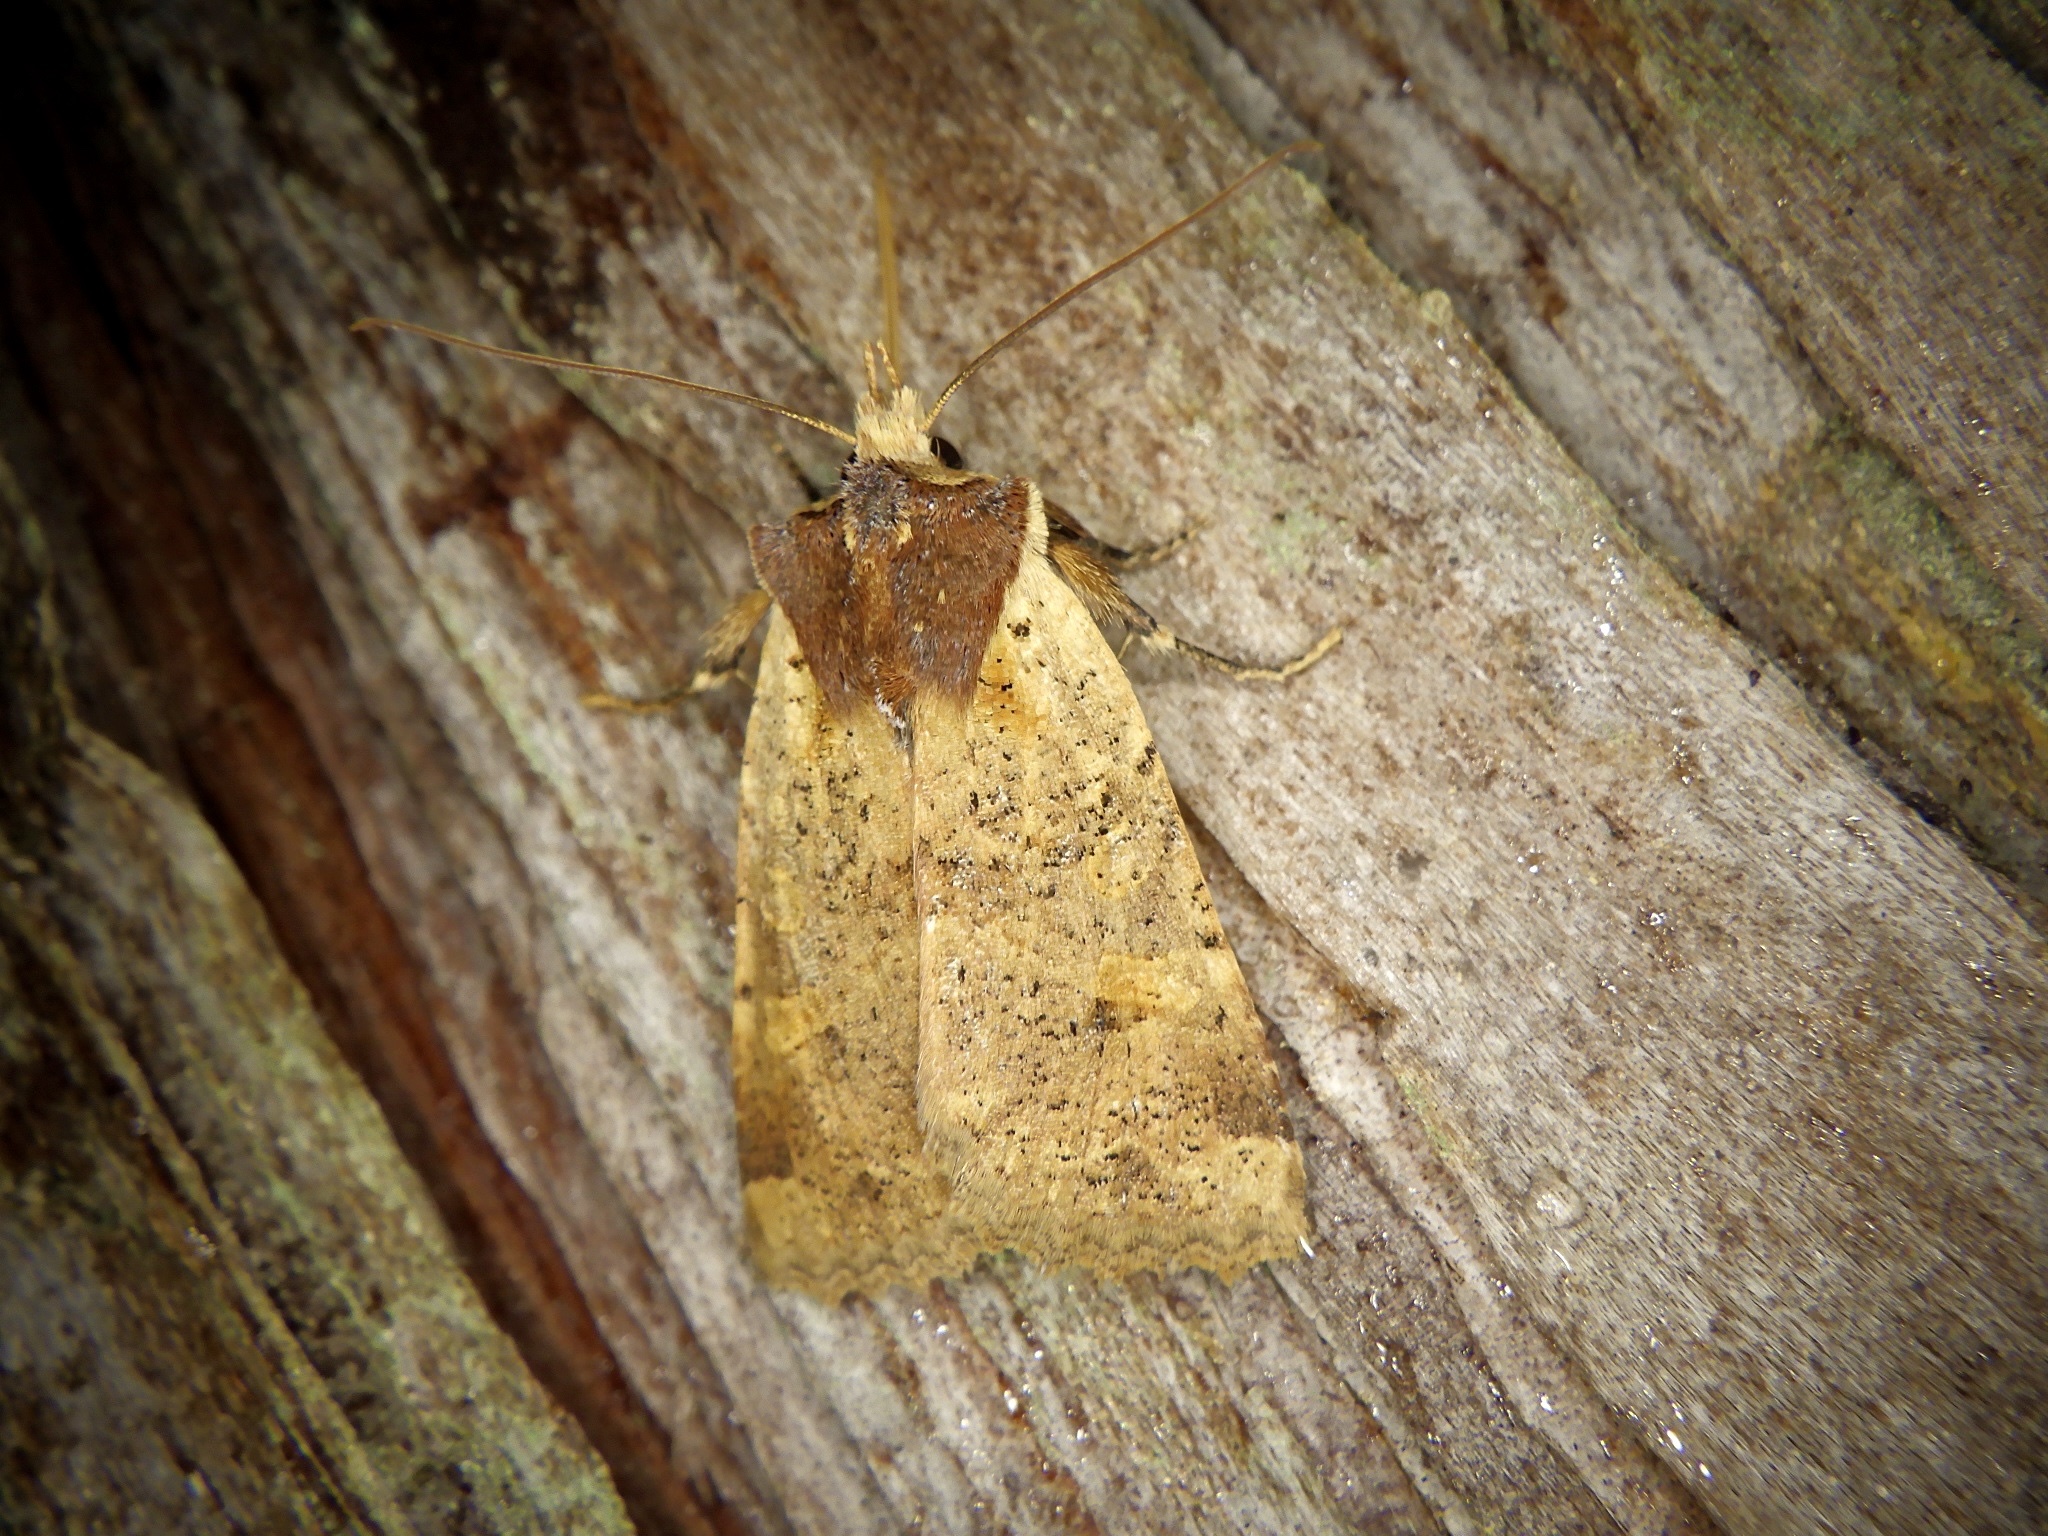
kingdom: Animalia
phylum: Arthropoda
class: Insecta
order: Lepidoptera
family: Noctuidae
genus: Rhynchaglaea
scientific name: Rhynchaglaea scitula
